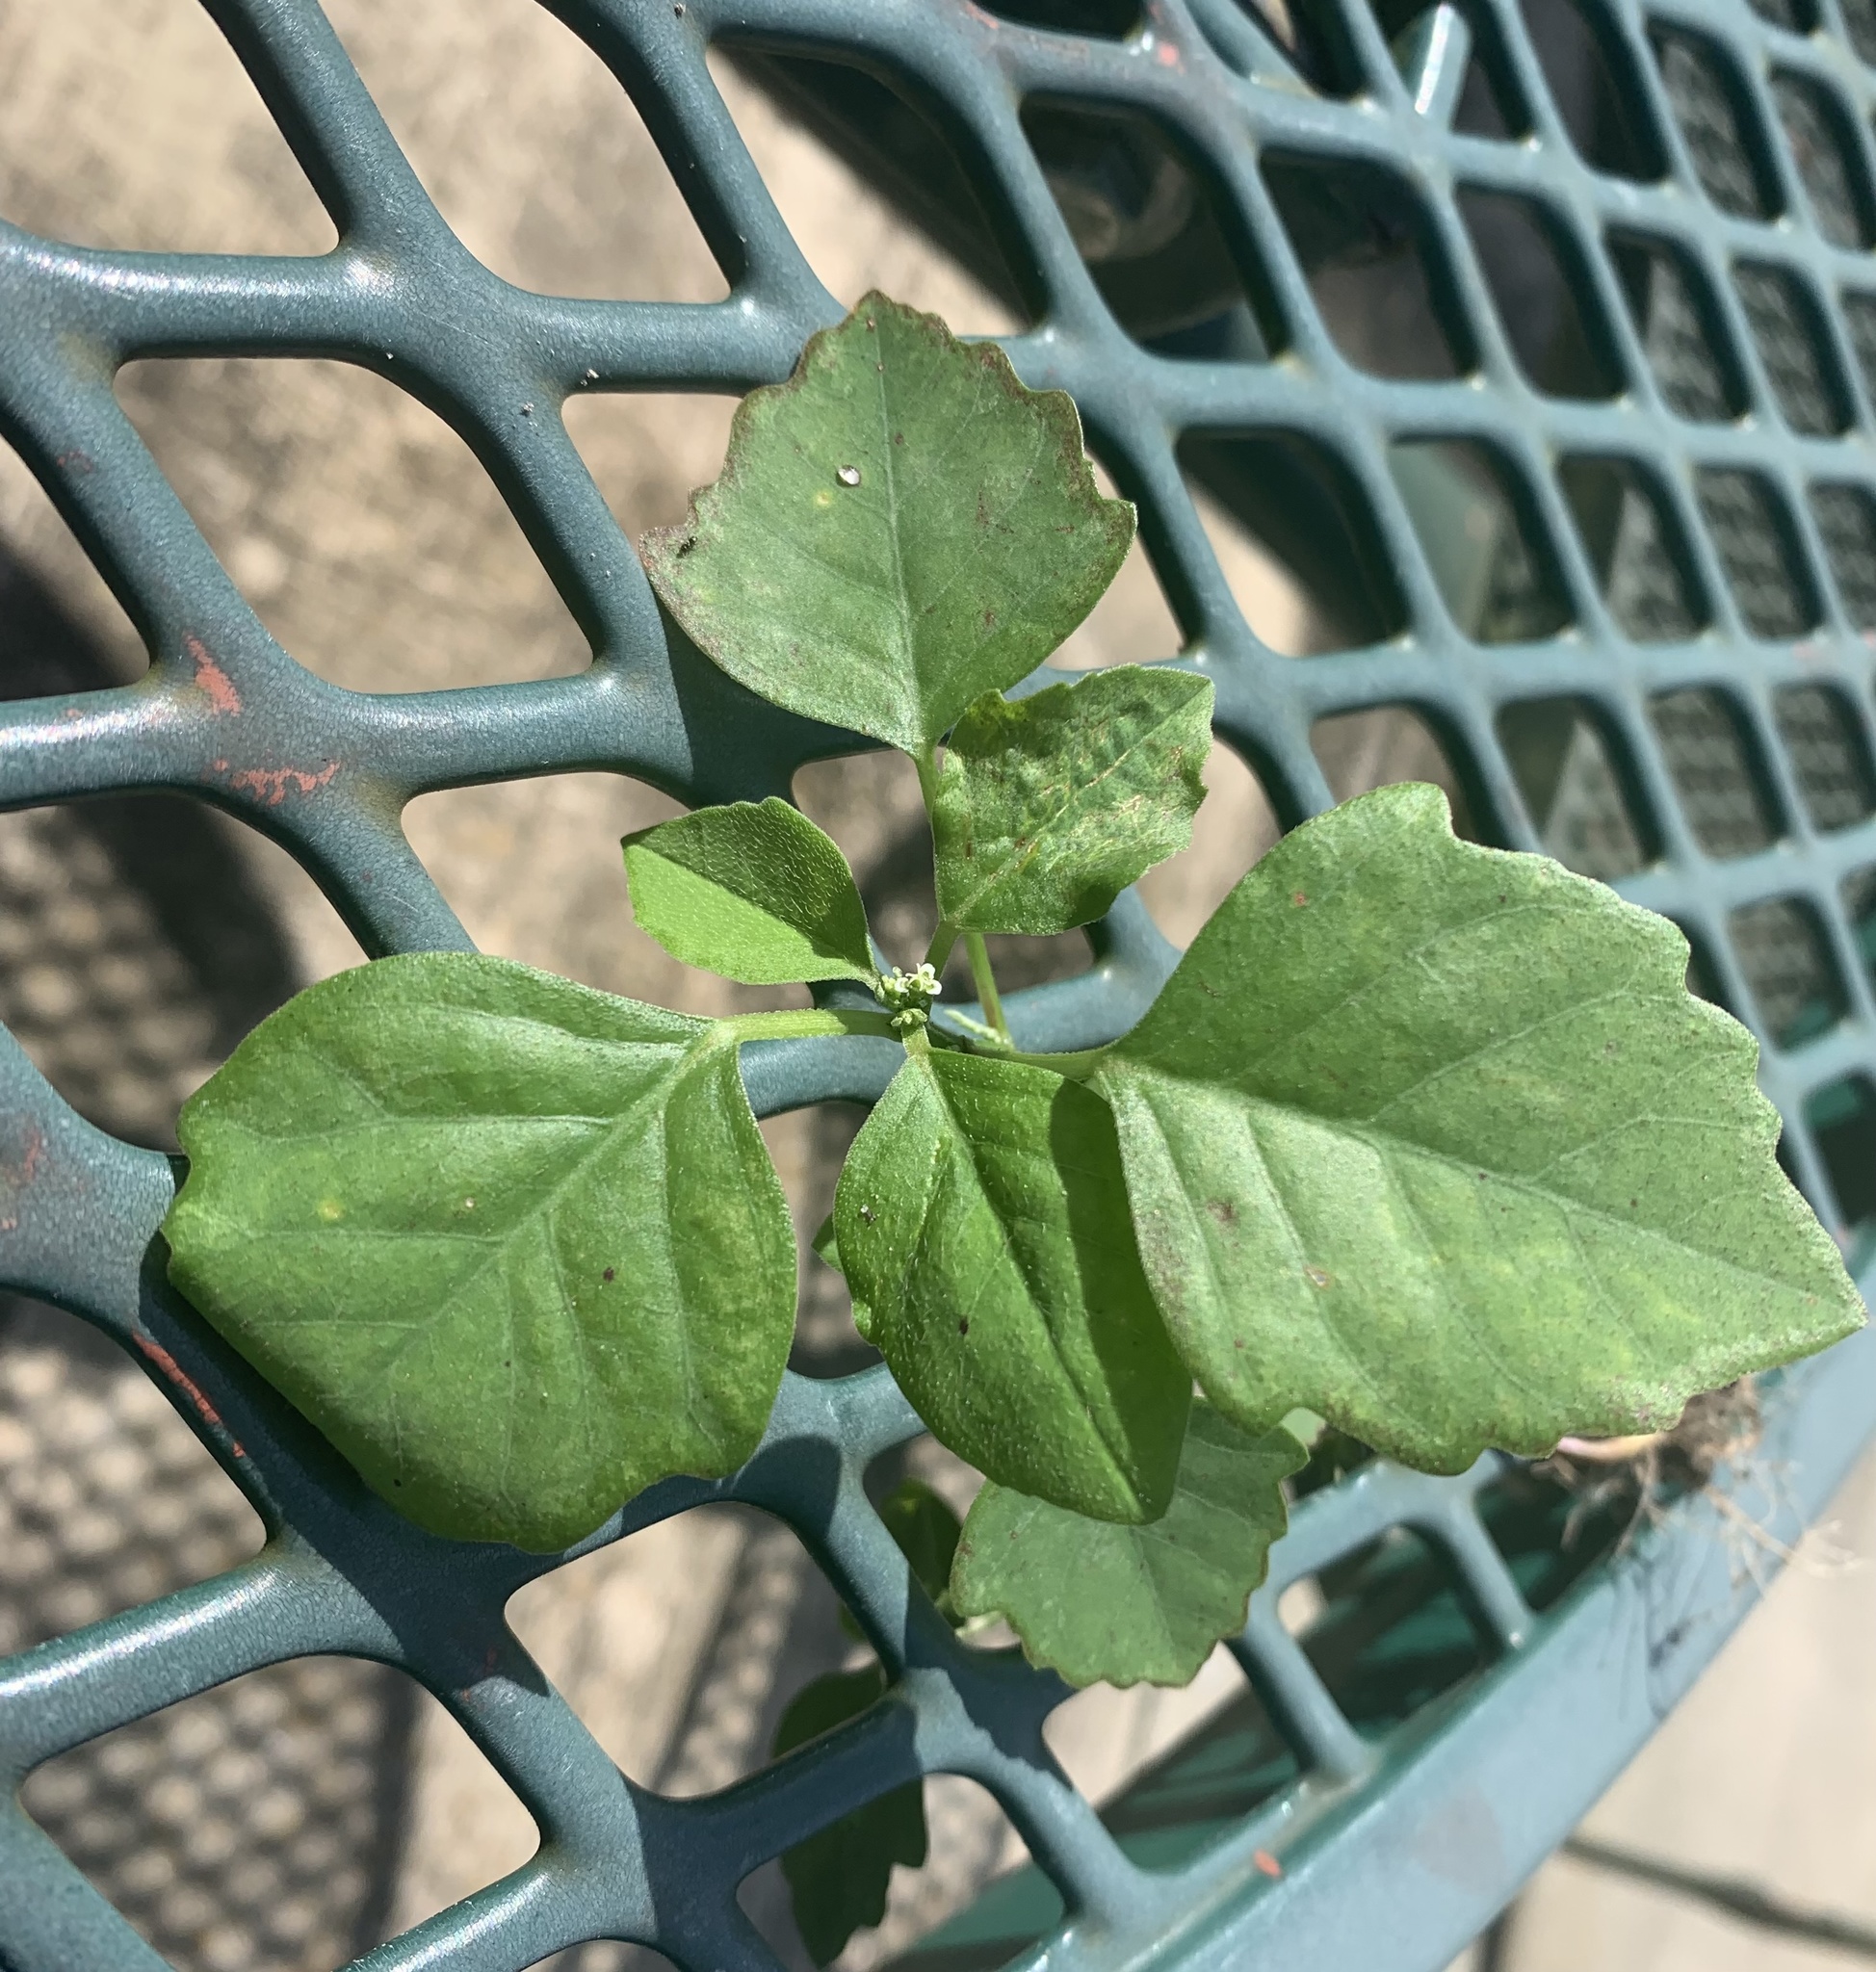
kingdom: Plantae
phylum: Tracheophyta
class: Magnoliopsida
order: Malpighiales
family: Euphorbiaceae
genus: Euphorbia
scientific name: Euphorbia graminea
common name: Grassleaf spurge
